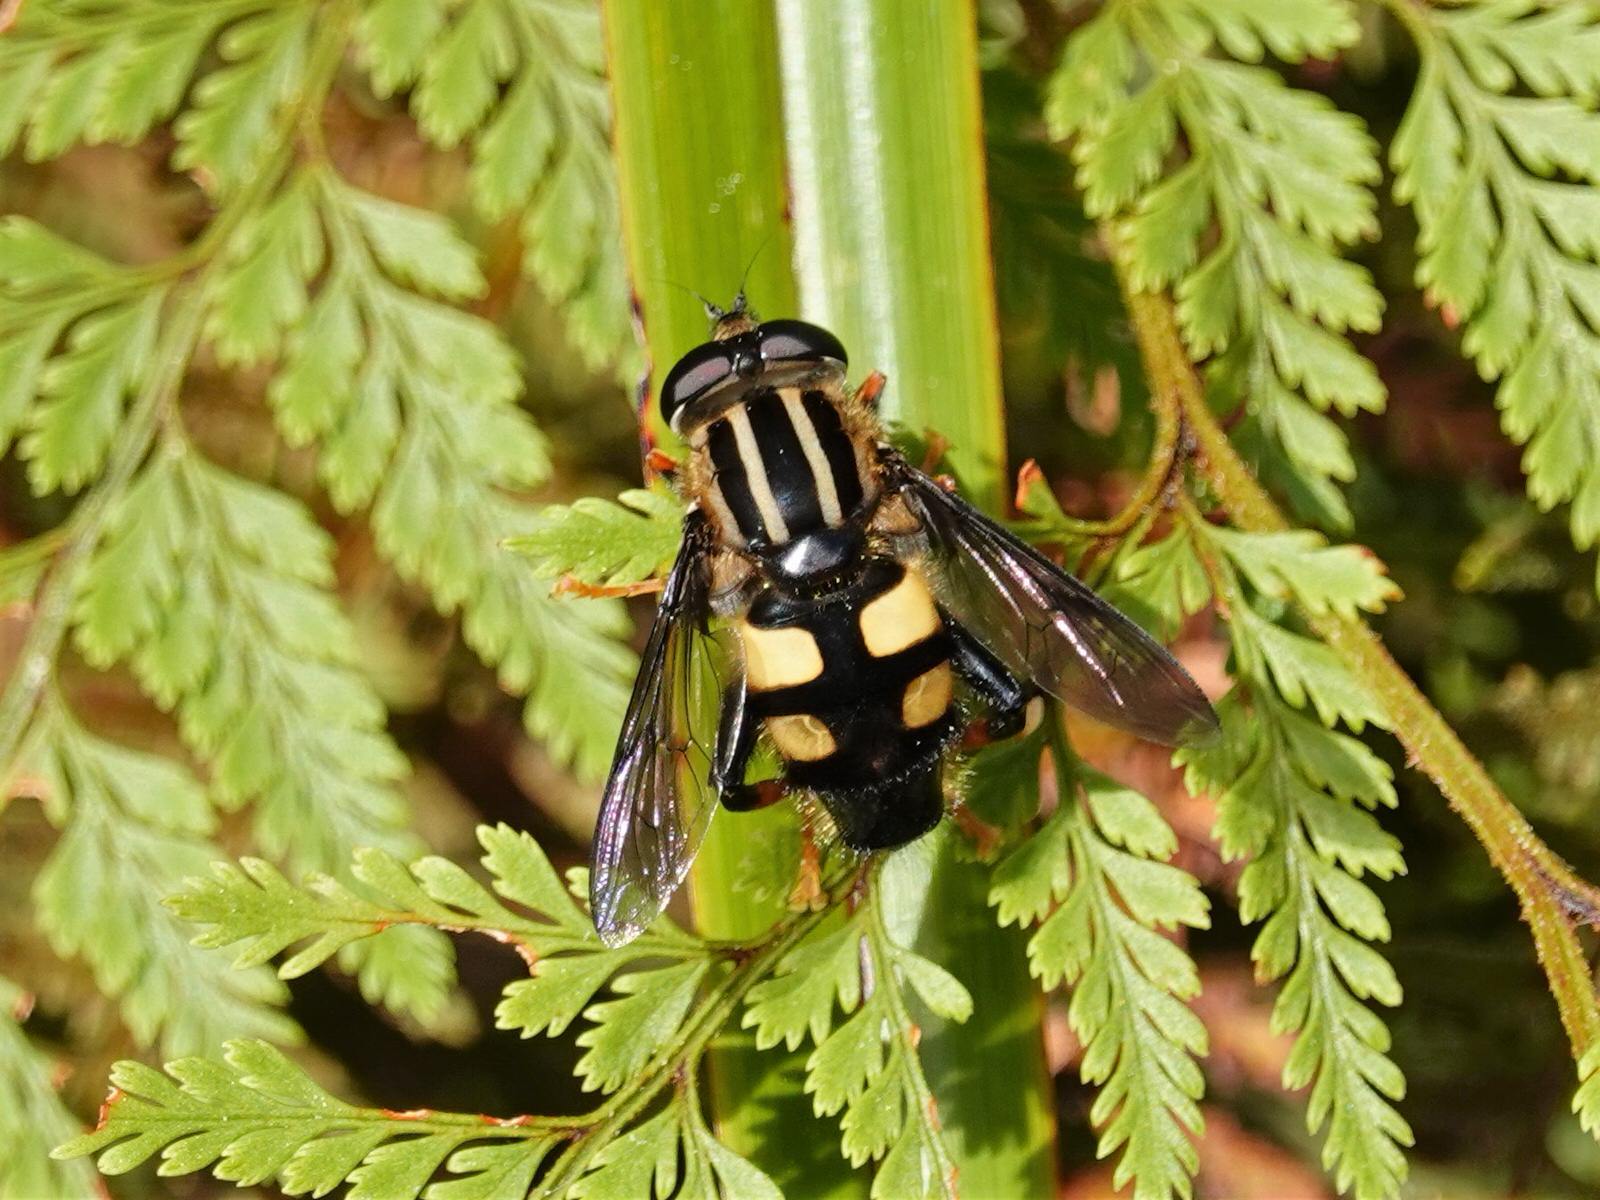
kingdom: Animalia
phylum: Arthropoda
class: Insecta
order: Diptera
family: Syrphidae
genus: Helophilus
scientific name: Helophilus seelandicus
